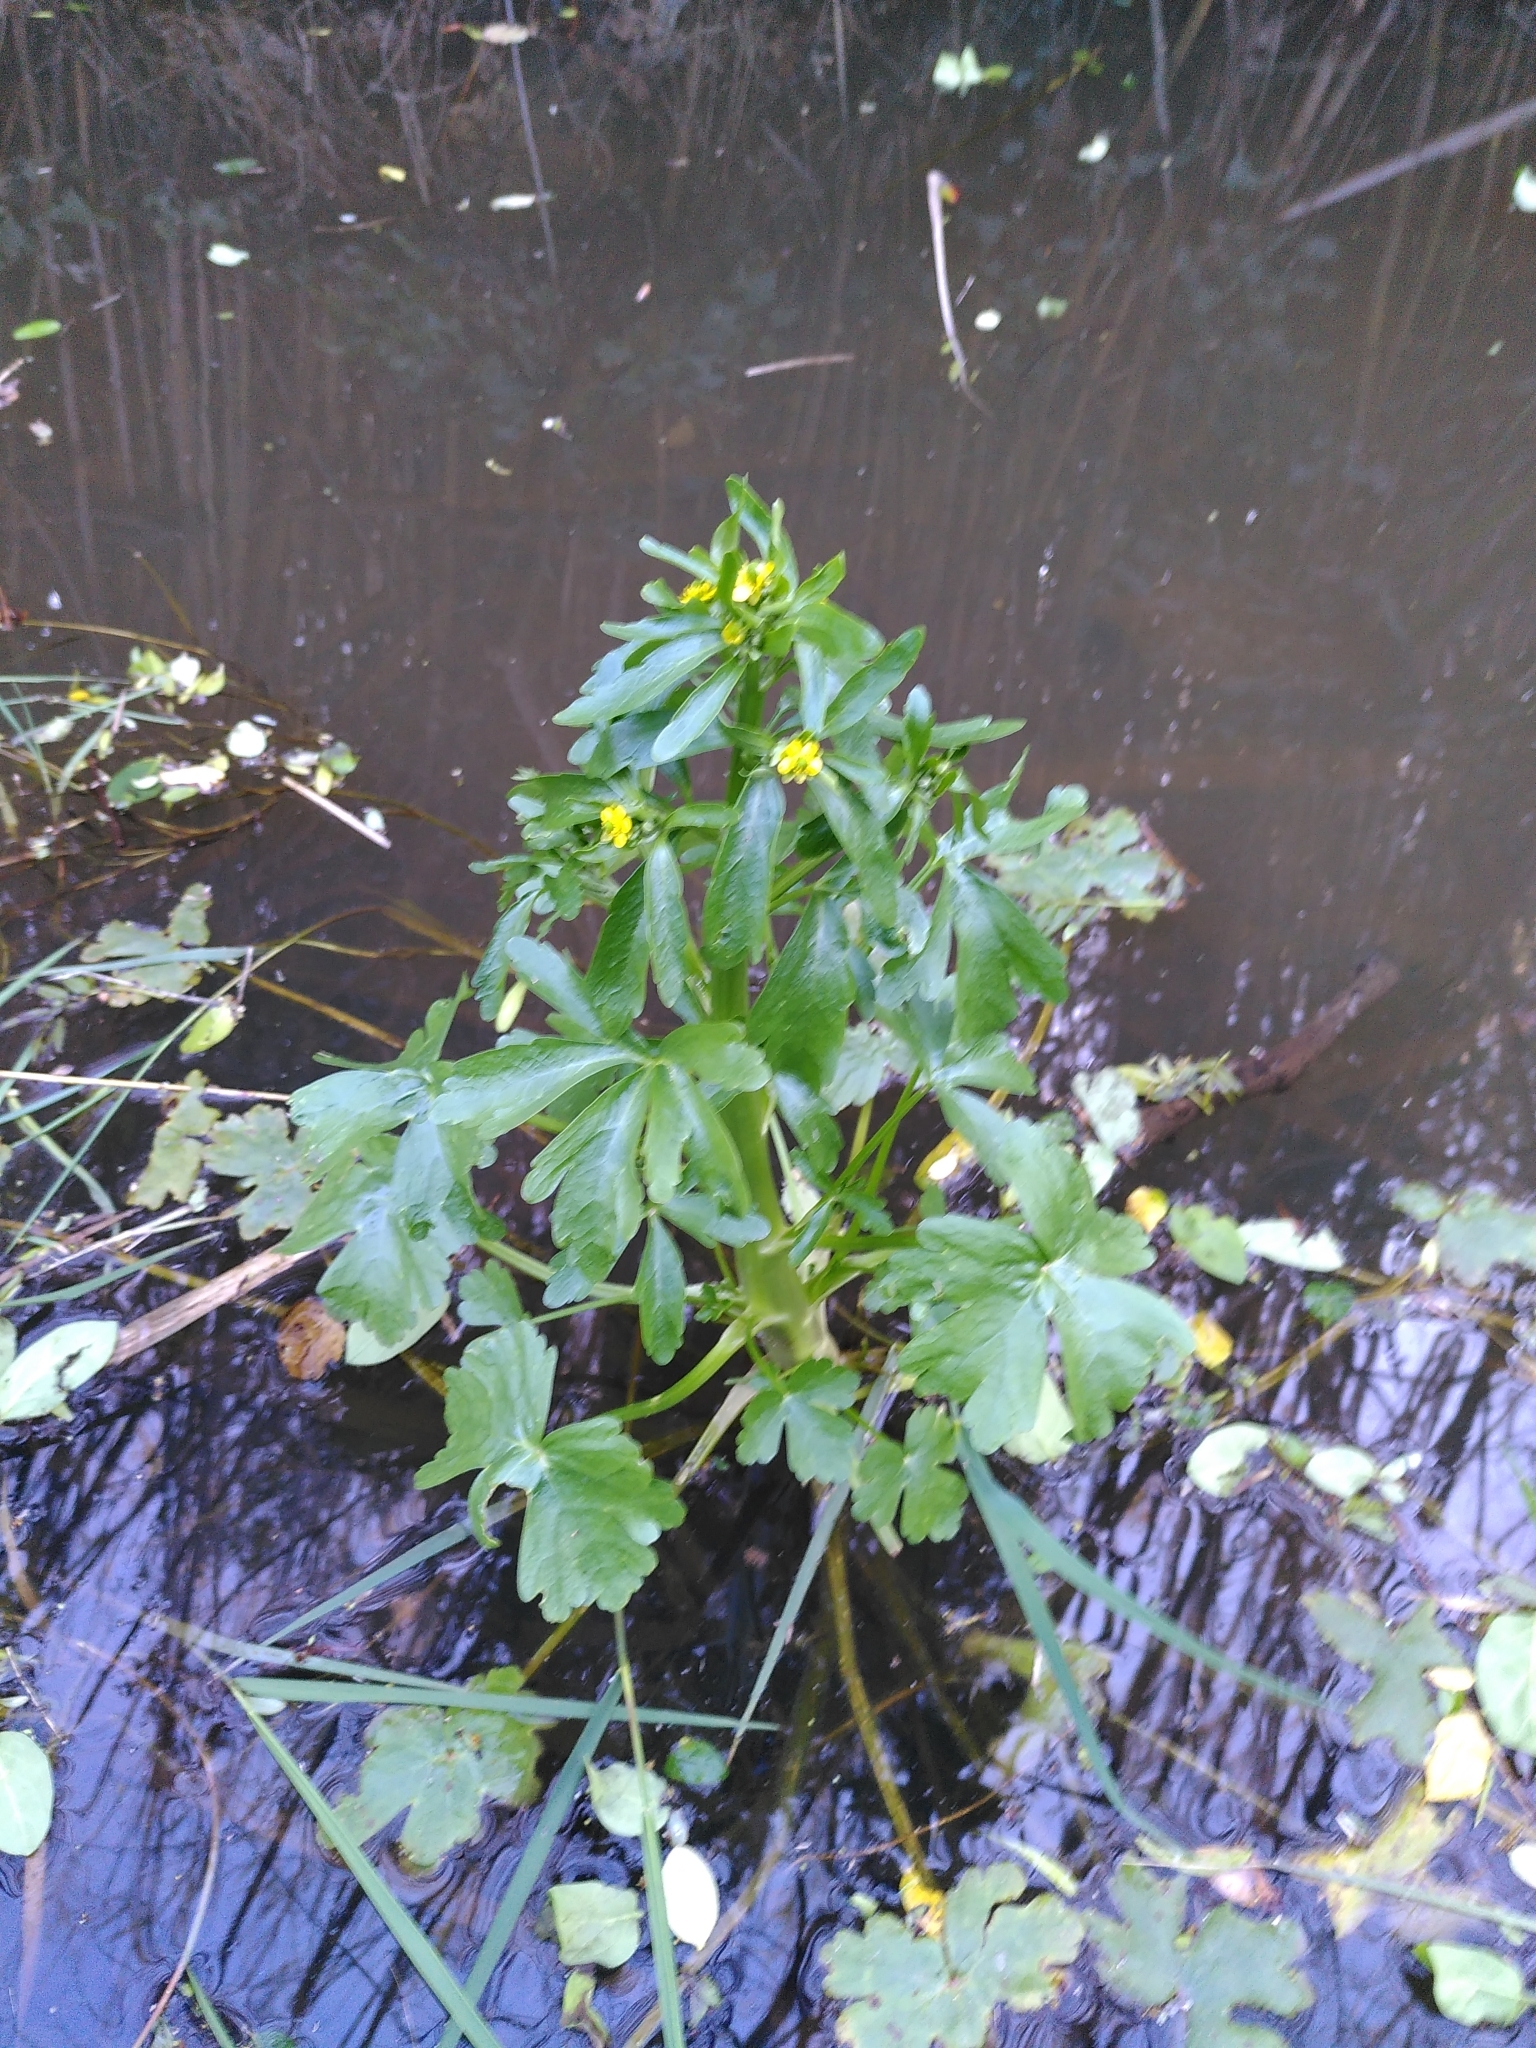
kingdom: Plantae
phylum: Tracheophyta
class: Magnoliopsida
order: Ranunculales
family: Ranunculaceae
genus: Ranunculus
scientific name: Ranunculus sceleratus
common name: Celery-leaved buttercup
